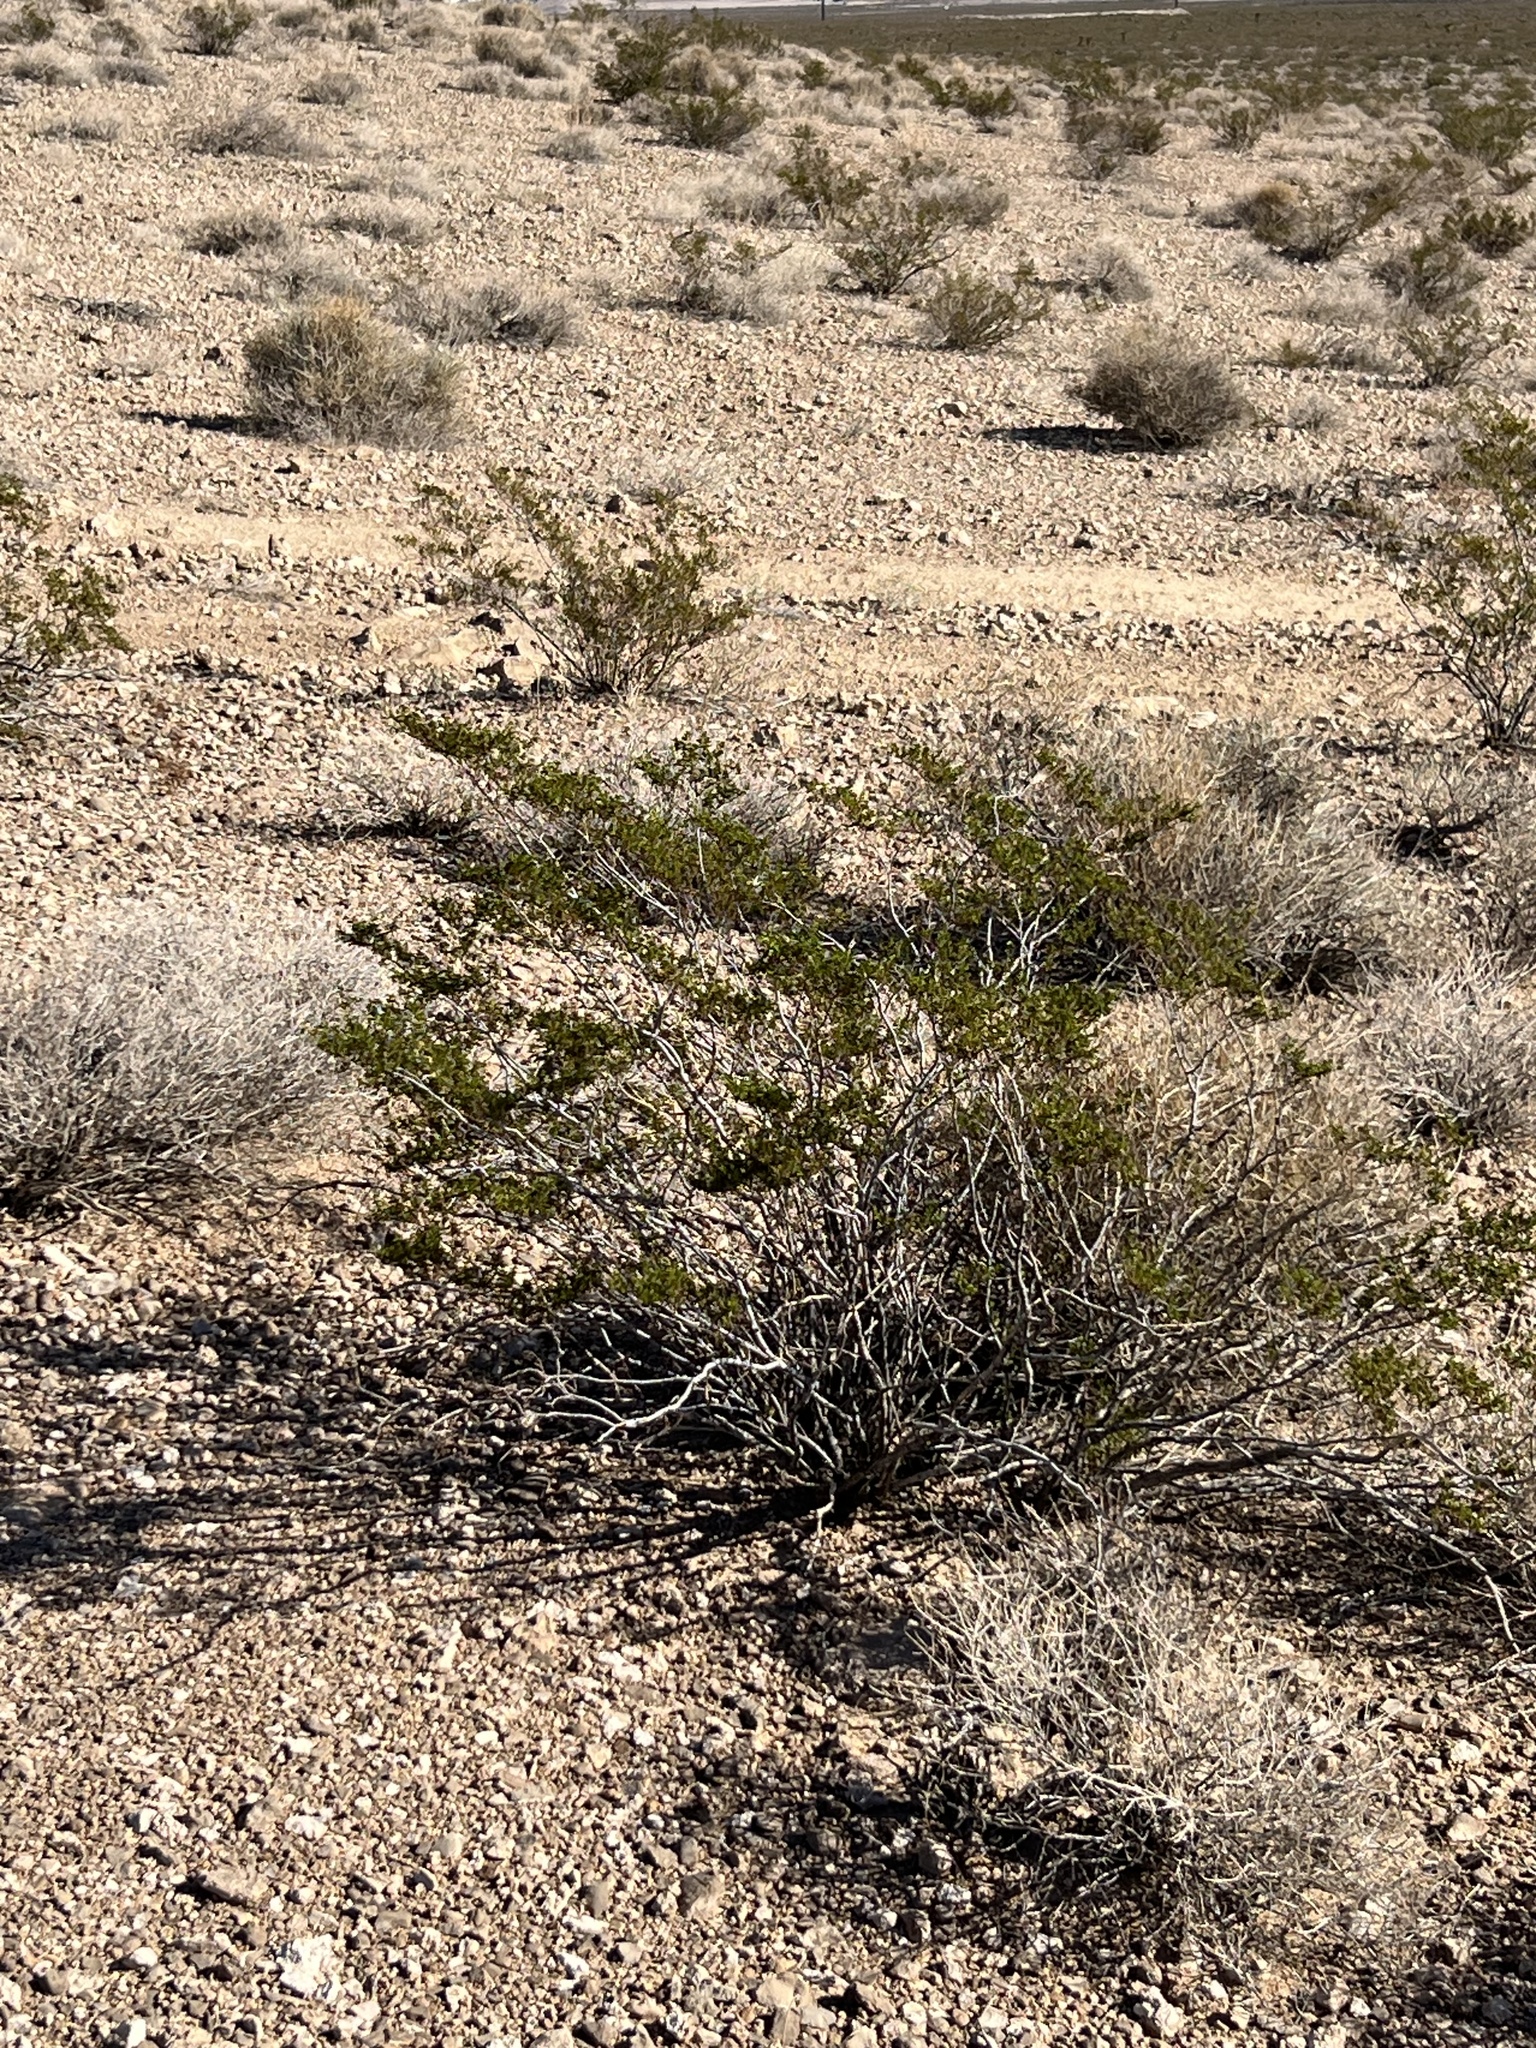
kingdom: Plantae
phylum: Tracheophyta
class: Magnoliopsida
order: Zygophyllales
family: Zygophyllaceae
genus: Larrea
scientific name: Larrea tridentata
